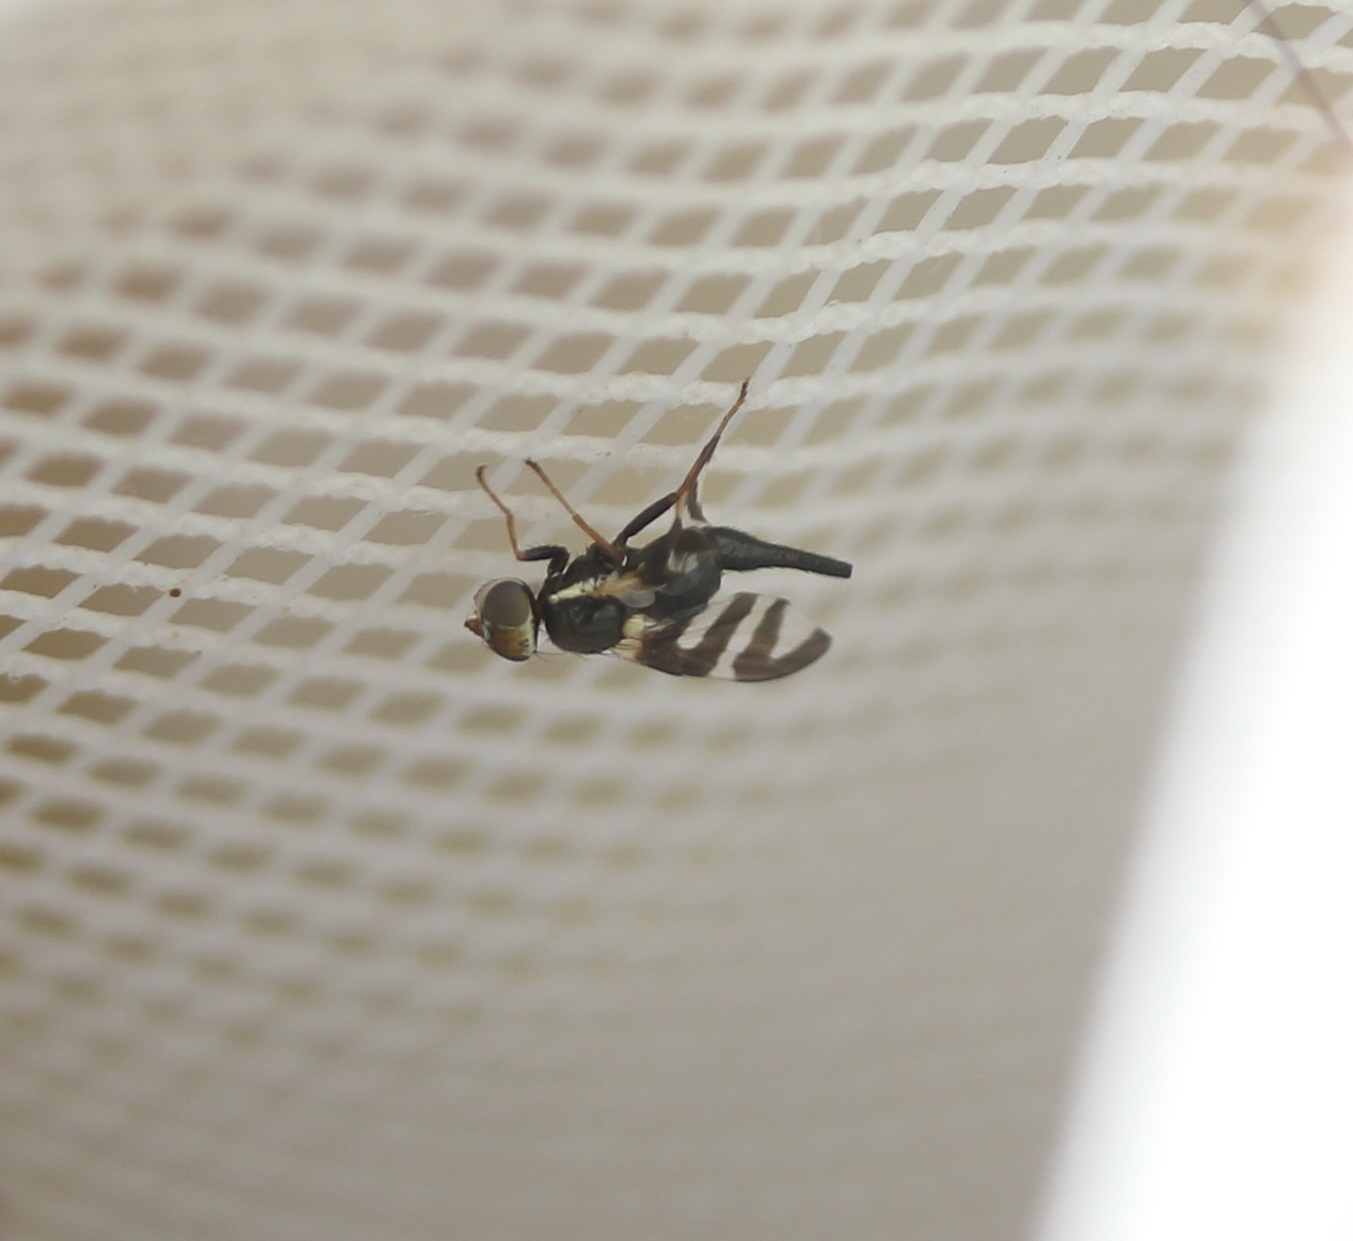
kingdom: Animalia
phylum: Arthropoda
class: Insecta
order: Diptera
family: Tephritidae
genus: Urophora
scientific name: Urophora quadrifasciata
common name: Knapweed seedhead fly
